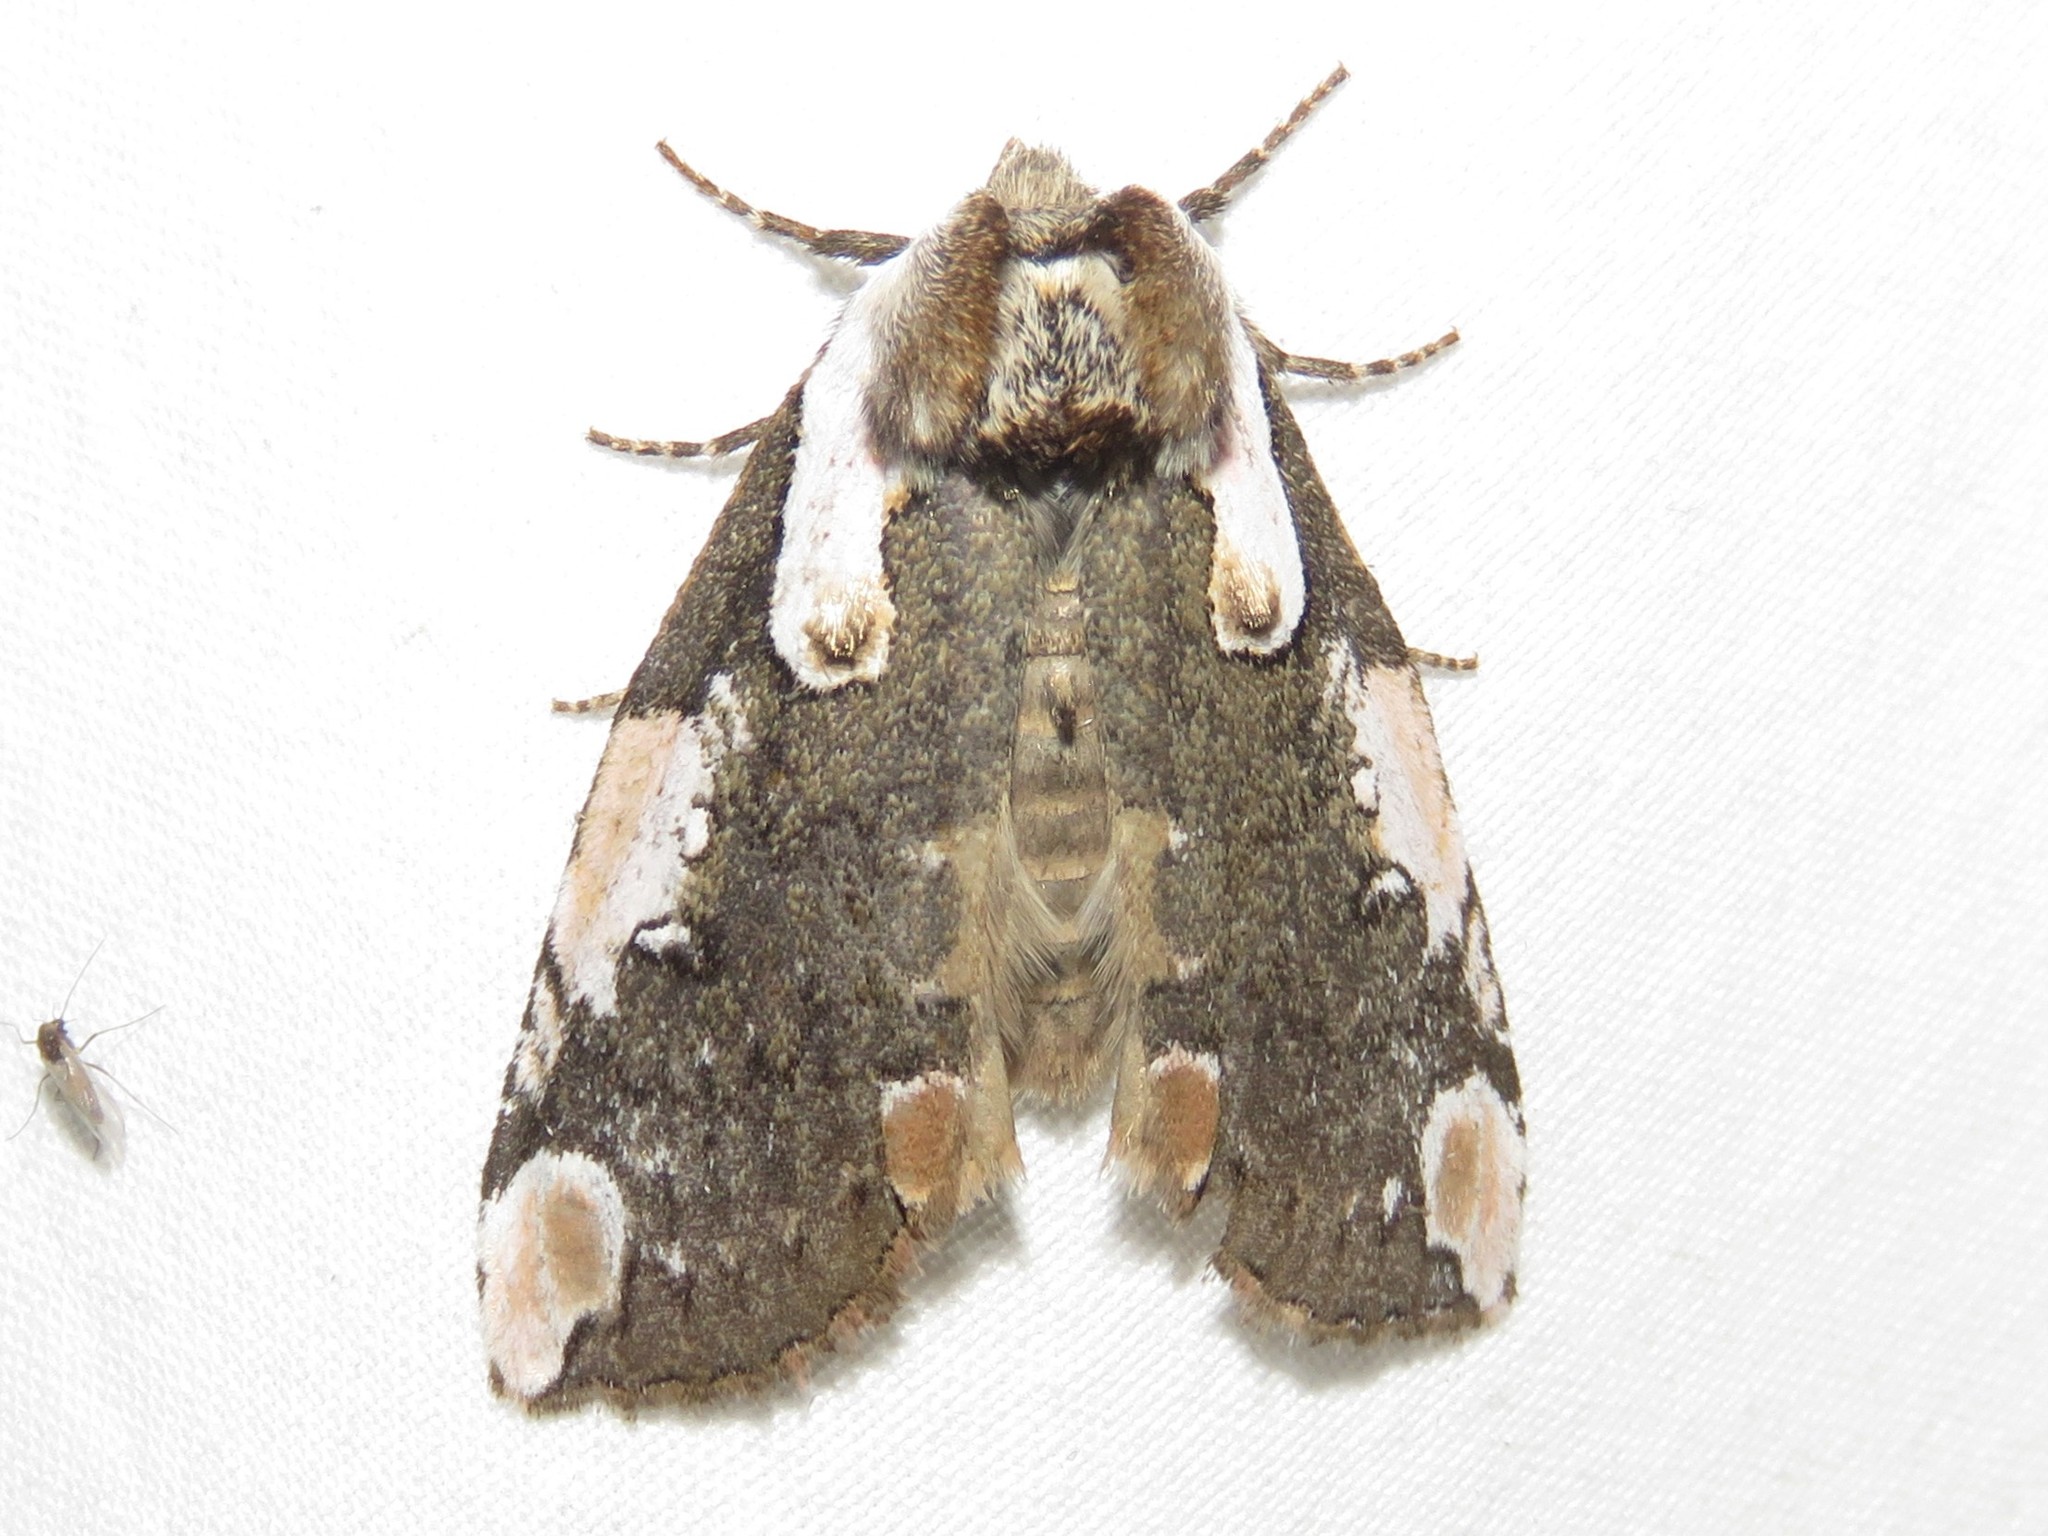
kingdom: Animalia
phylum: Arthropoda
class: Insecta
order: Lepidoptera
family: Drepanidae
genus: Euthyatira
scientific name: Euthyatira pudens
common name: Dogwood thyatirid moth
